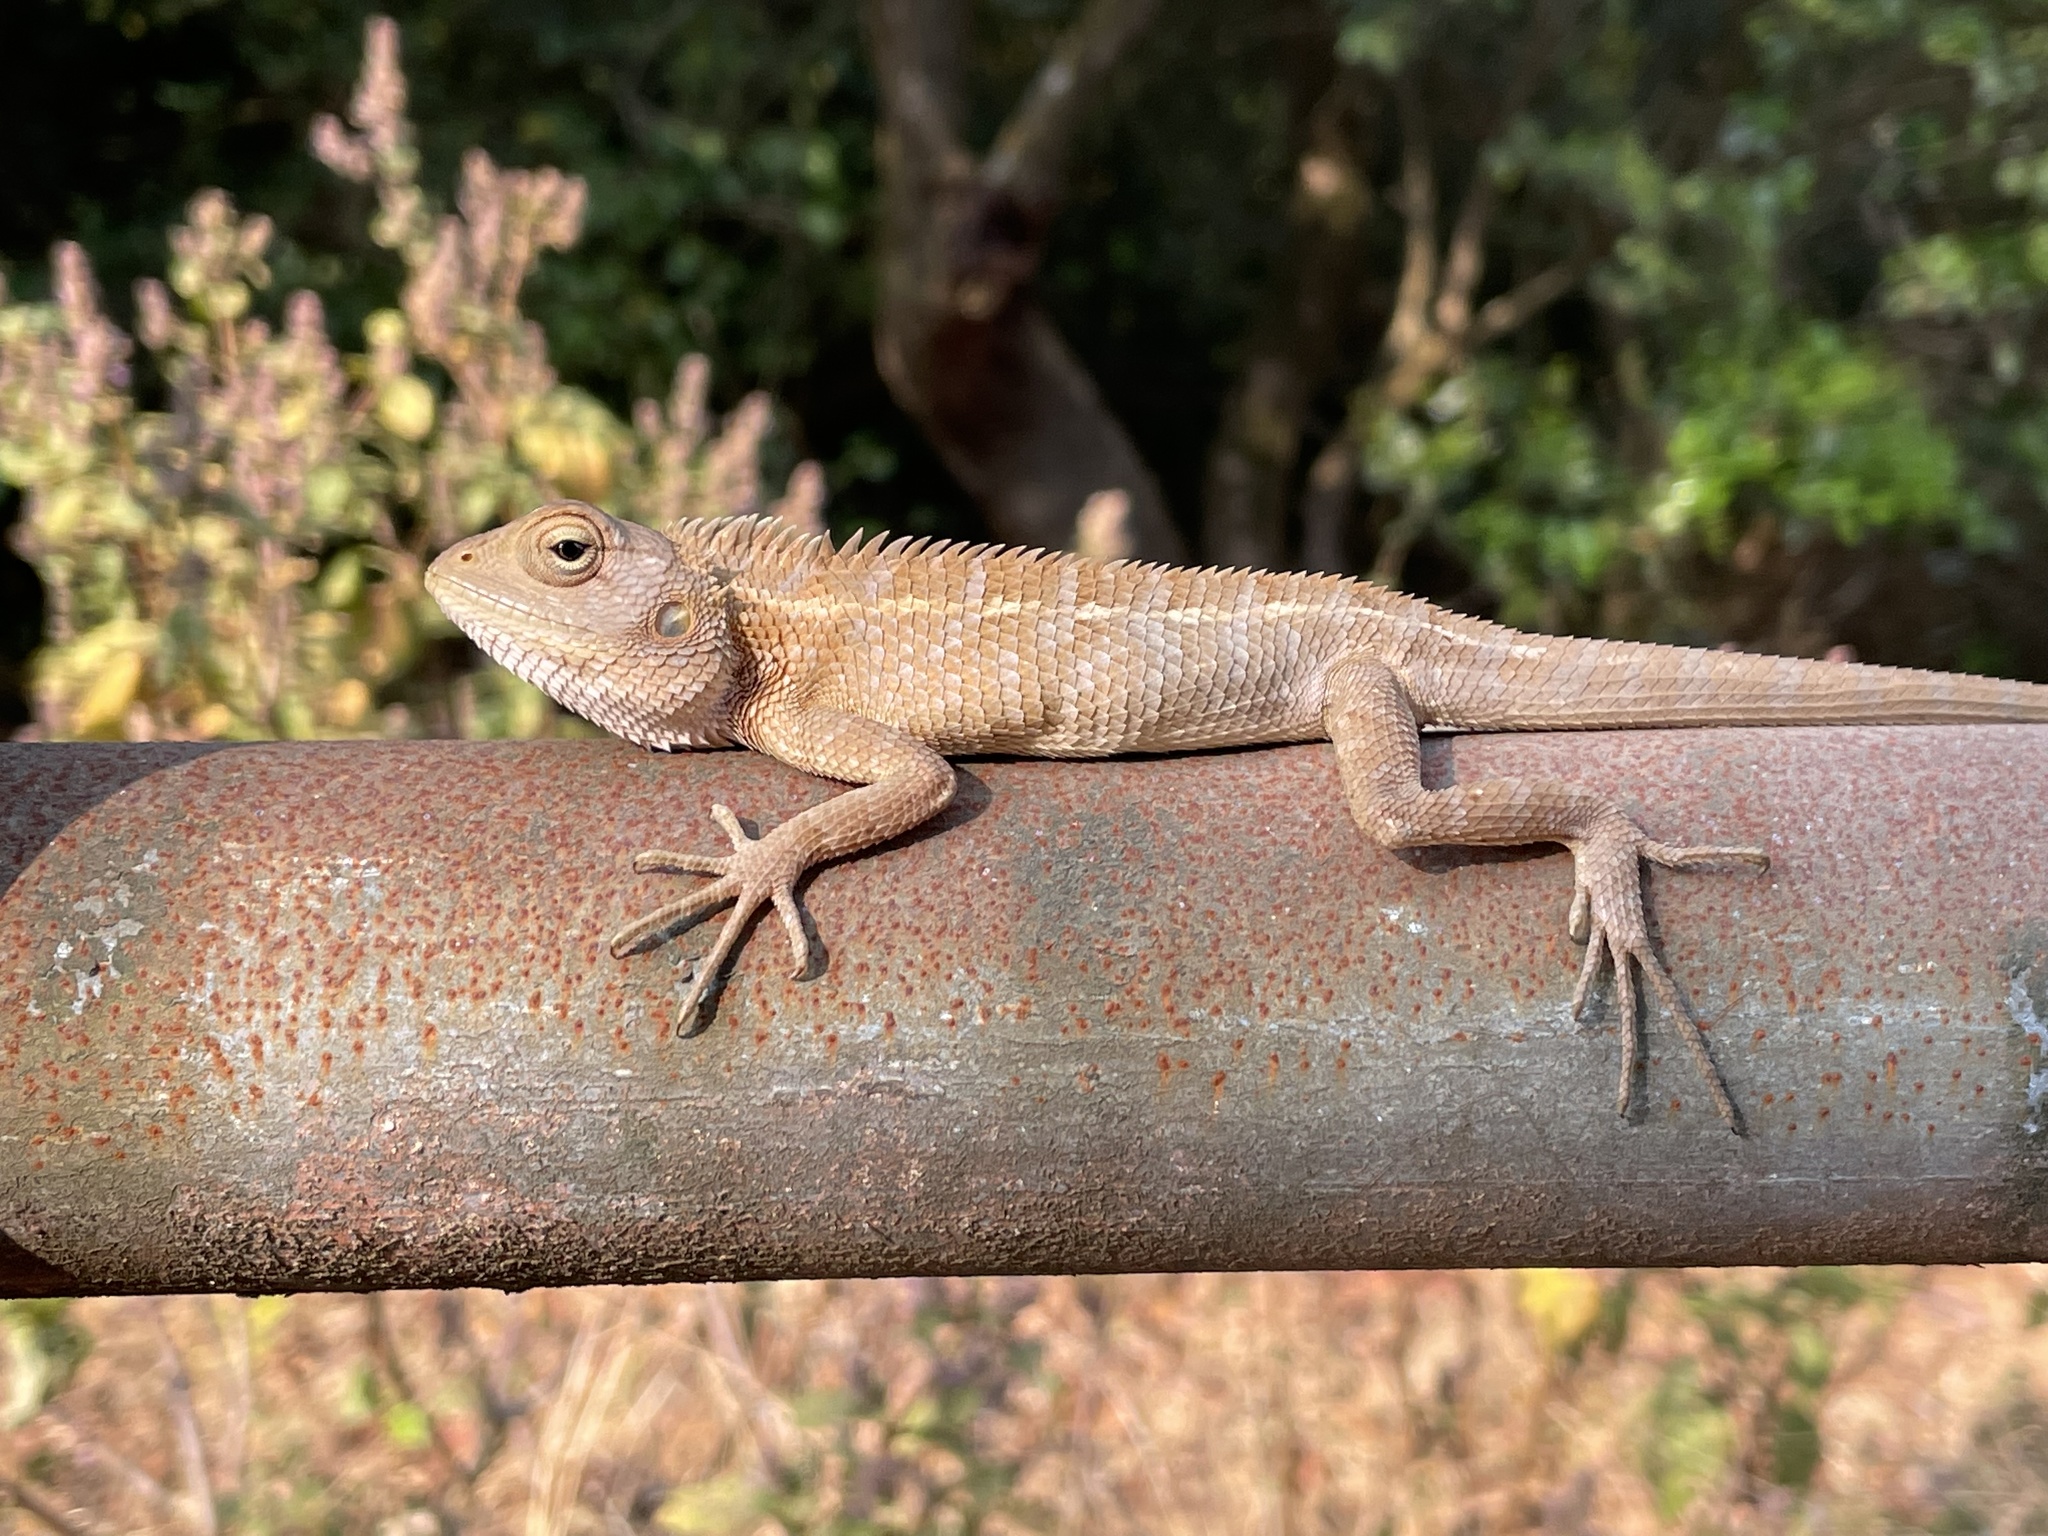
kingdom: Animalia
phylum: Chordata
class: Squamata
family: Agamidae
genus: Calotes
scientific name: Calotes versicolor
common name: Oriental garden lizard
